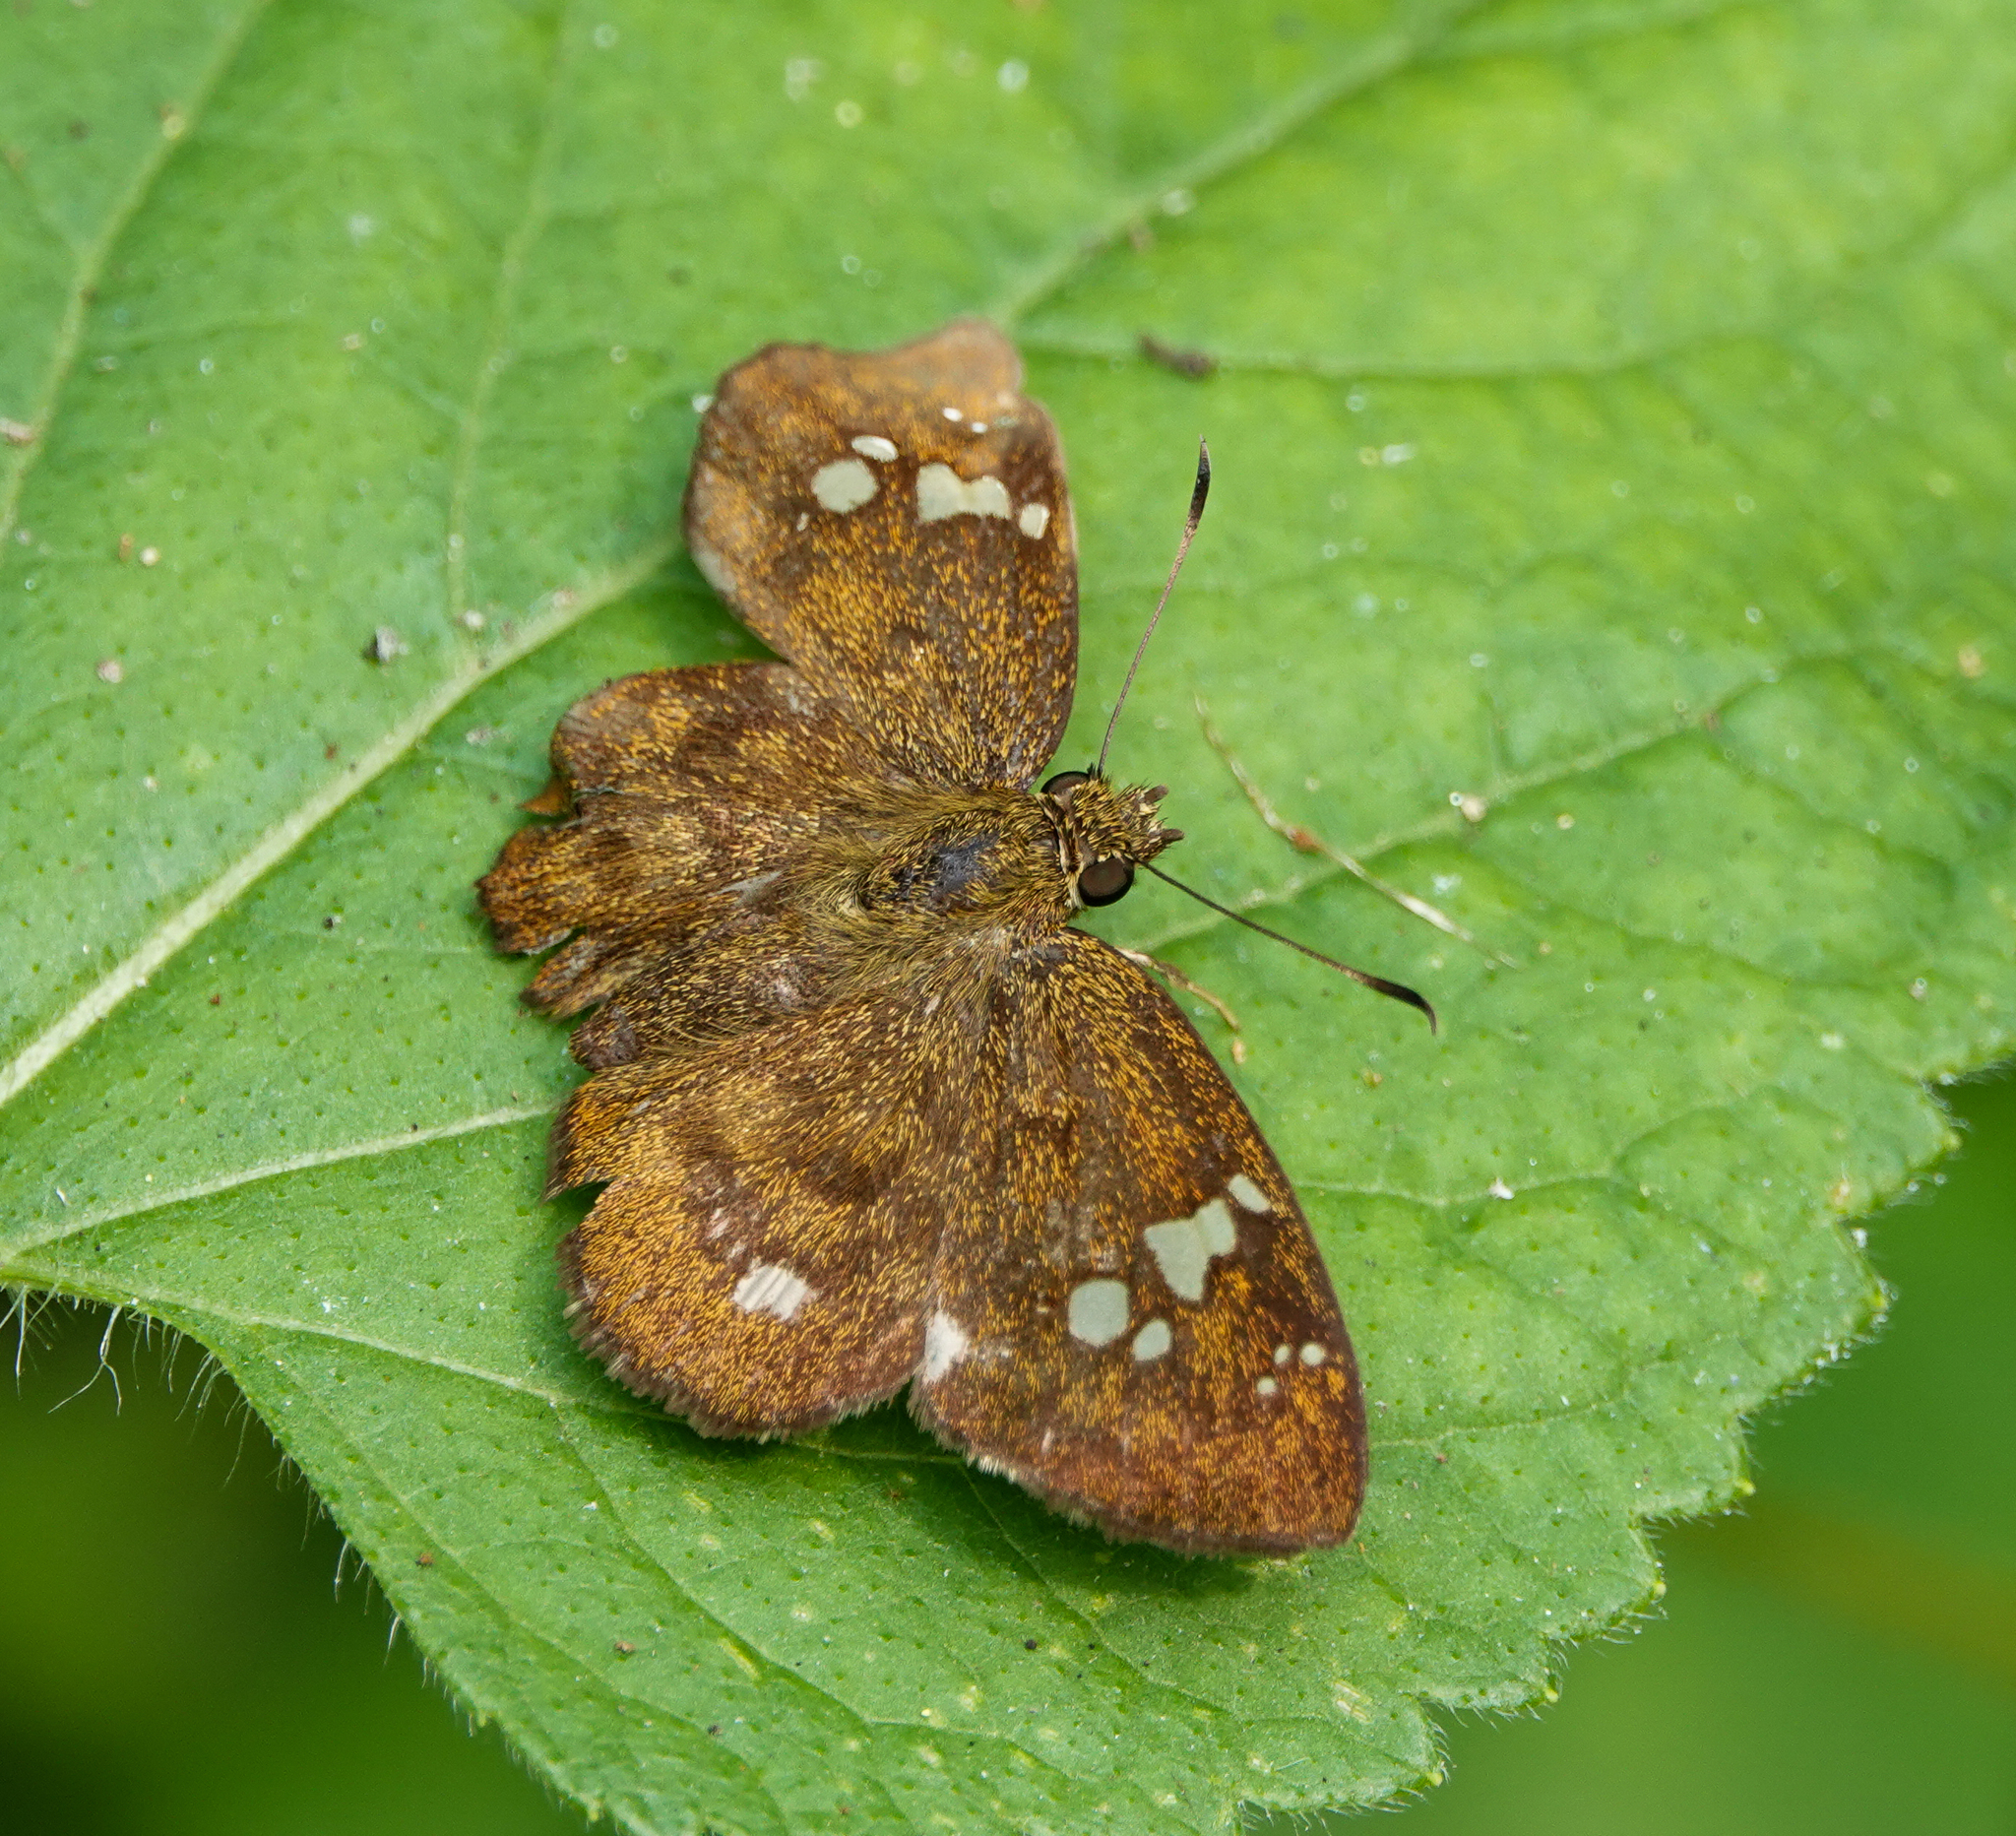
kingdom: Animalia
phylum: Arthropoda
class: Insecta
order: Lepidoptera
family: Hesperiidae
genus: Pseudocoladenia
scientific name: Pseudocoladenia dan
